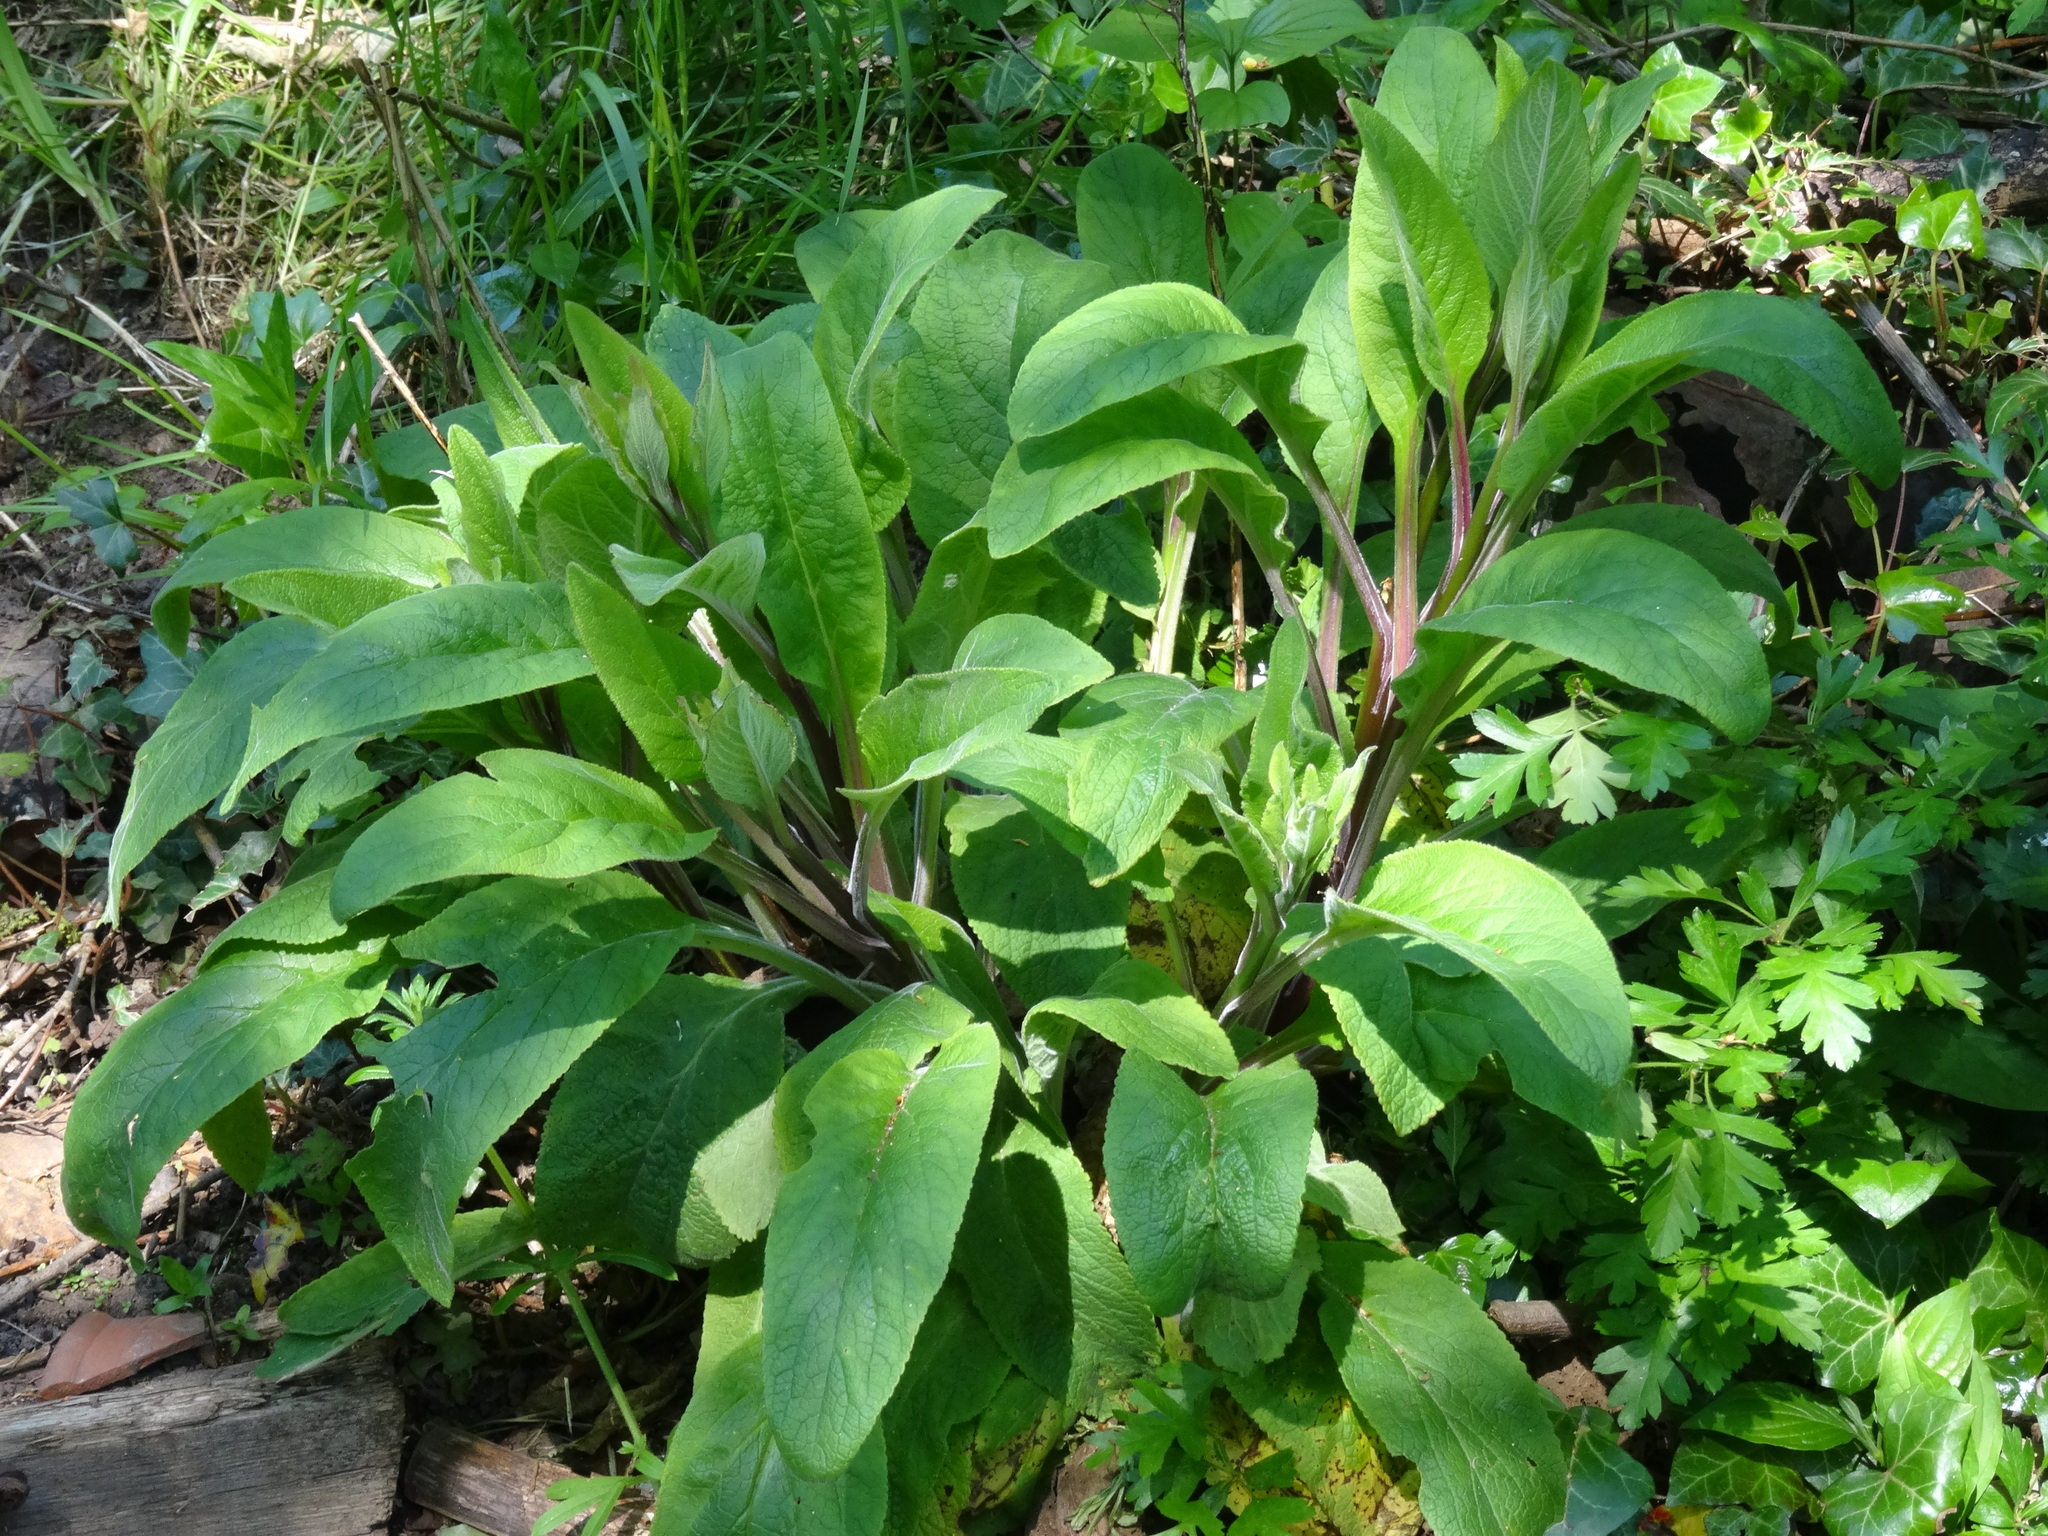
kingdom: Plantae
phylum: Tracheophyta
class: Magnoliopsida
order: Lamiales
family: Plantaginaceae
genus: Digitalis
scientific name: Digitalis purpurea
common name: Foxglove
